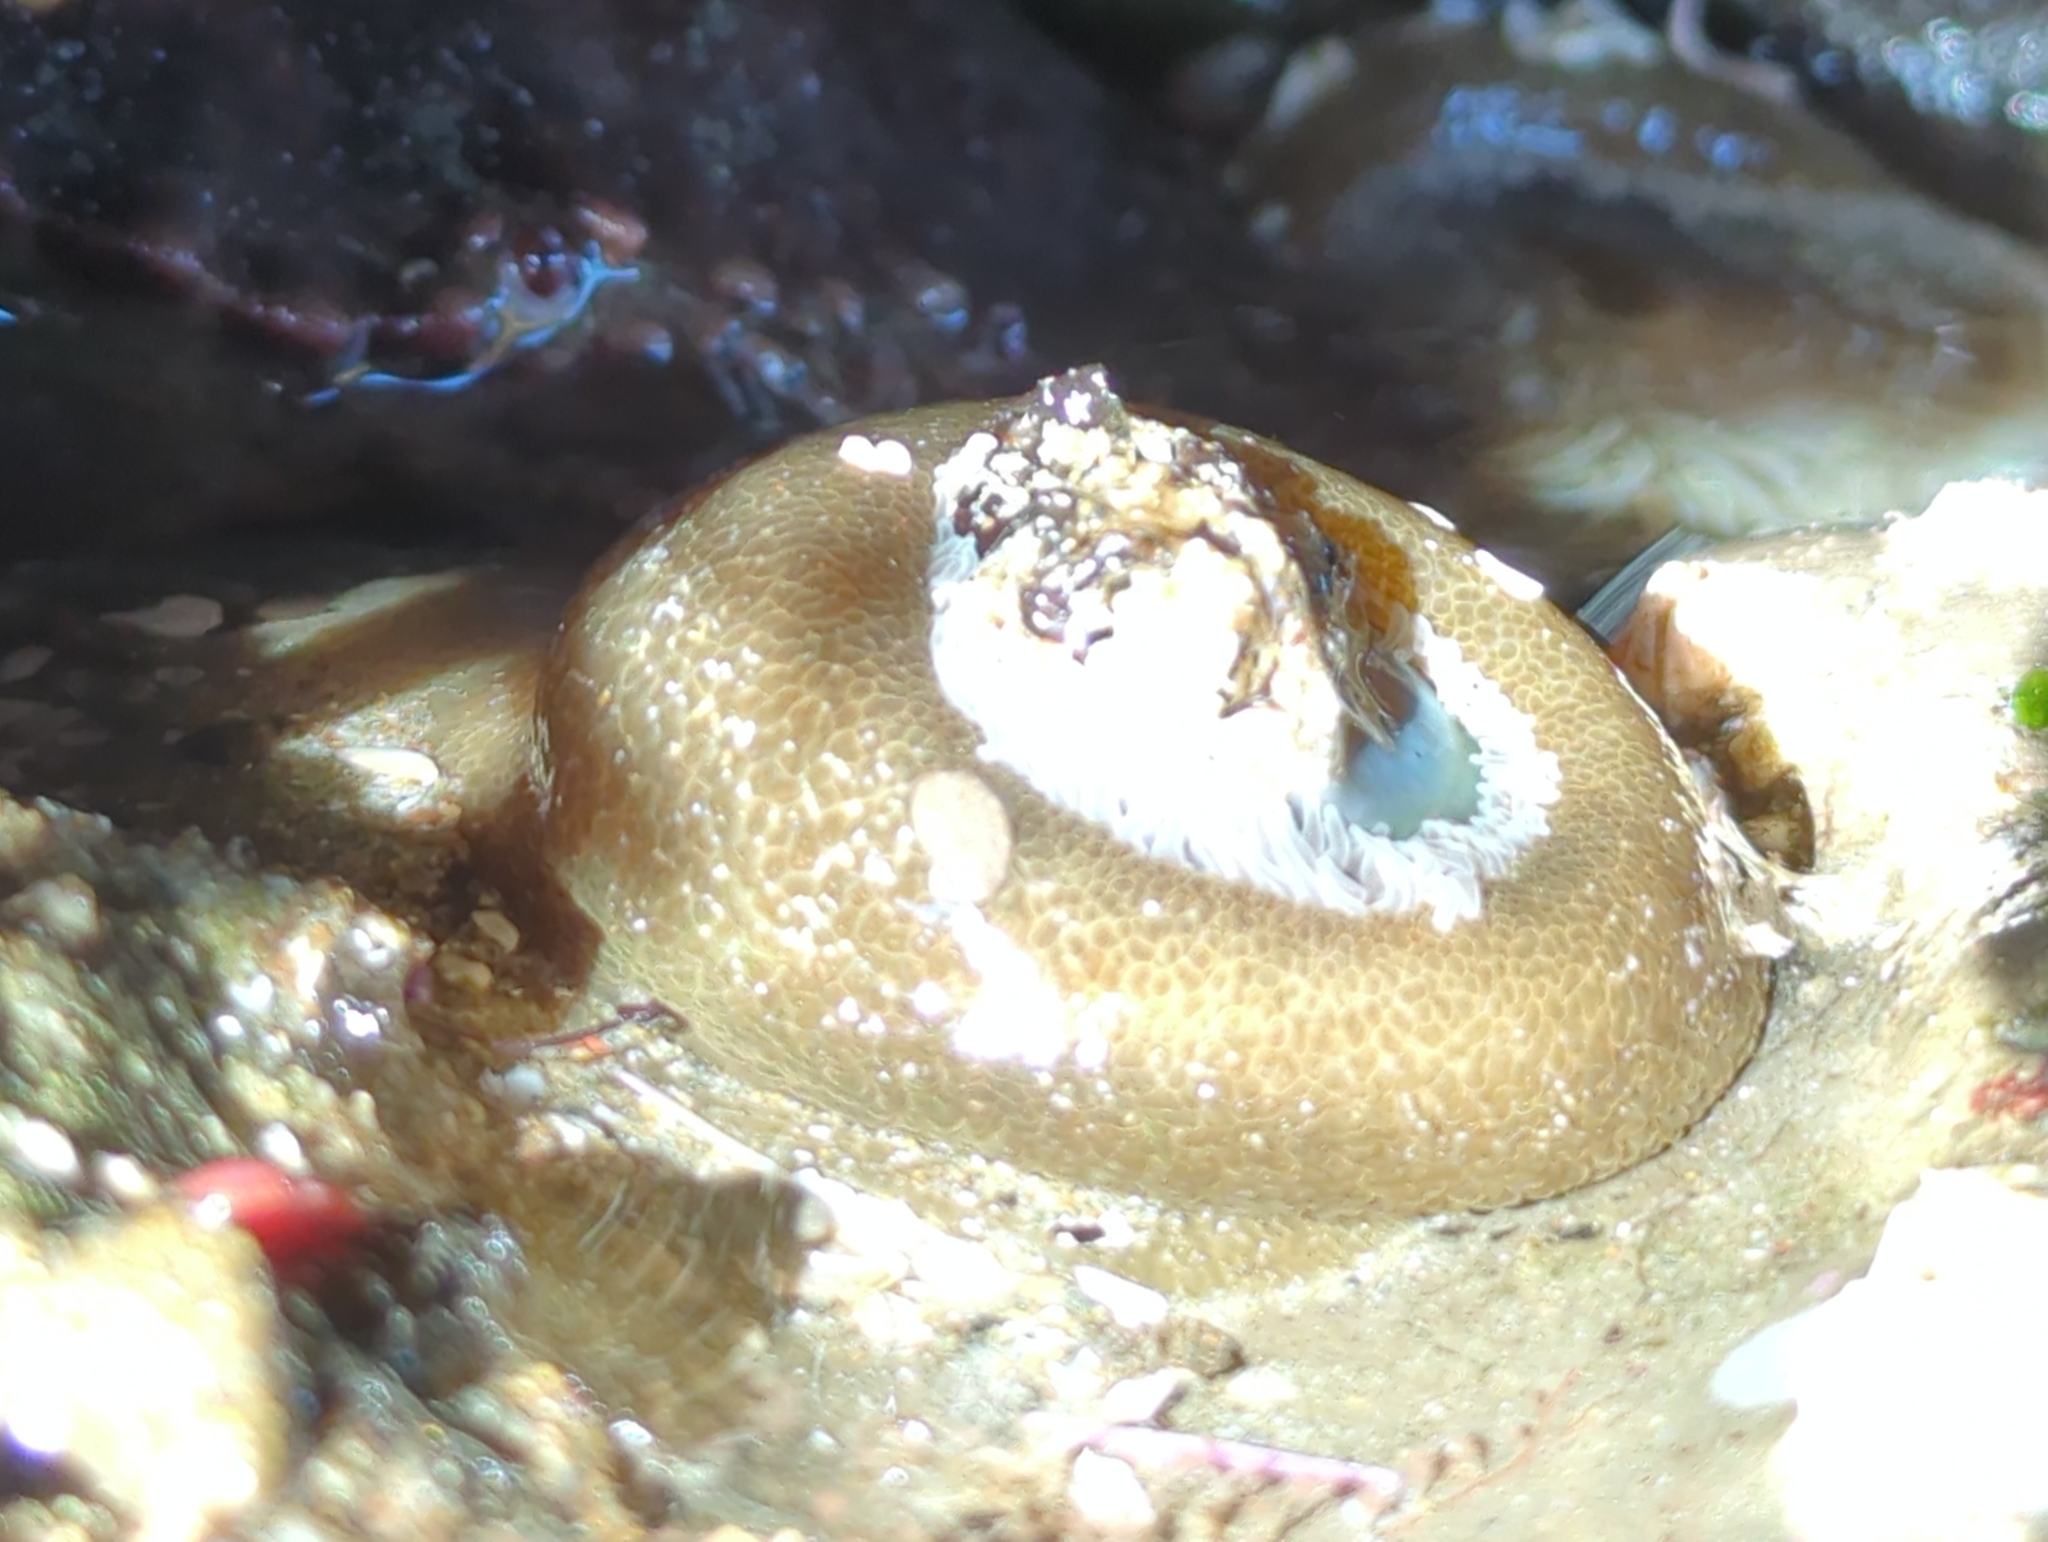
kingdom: Animalia
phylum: Cnidaria
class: Anthozoa
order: Actiniaria
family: Actiniidae
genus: Anthopleura
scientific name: Anthopleura xanthogrammica
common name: Giant green anemone
